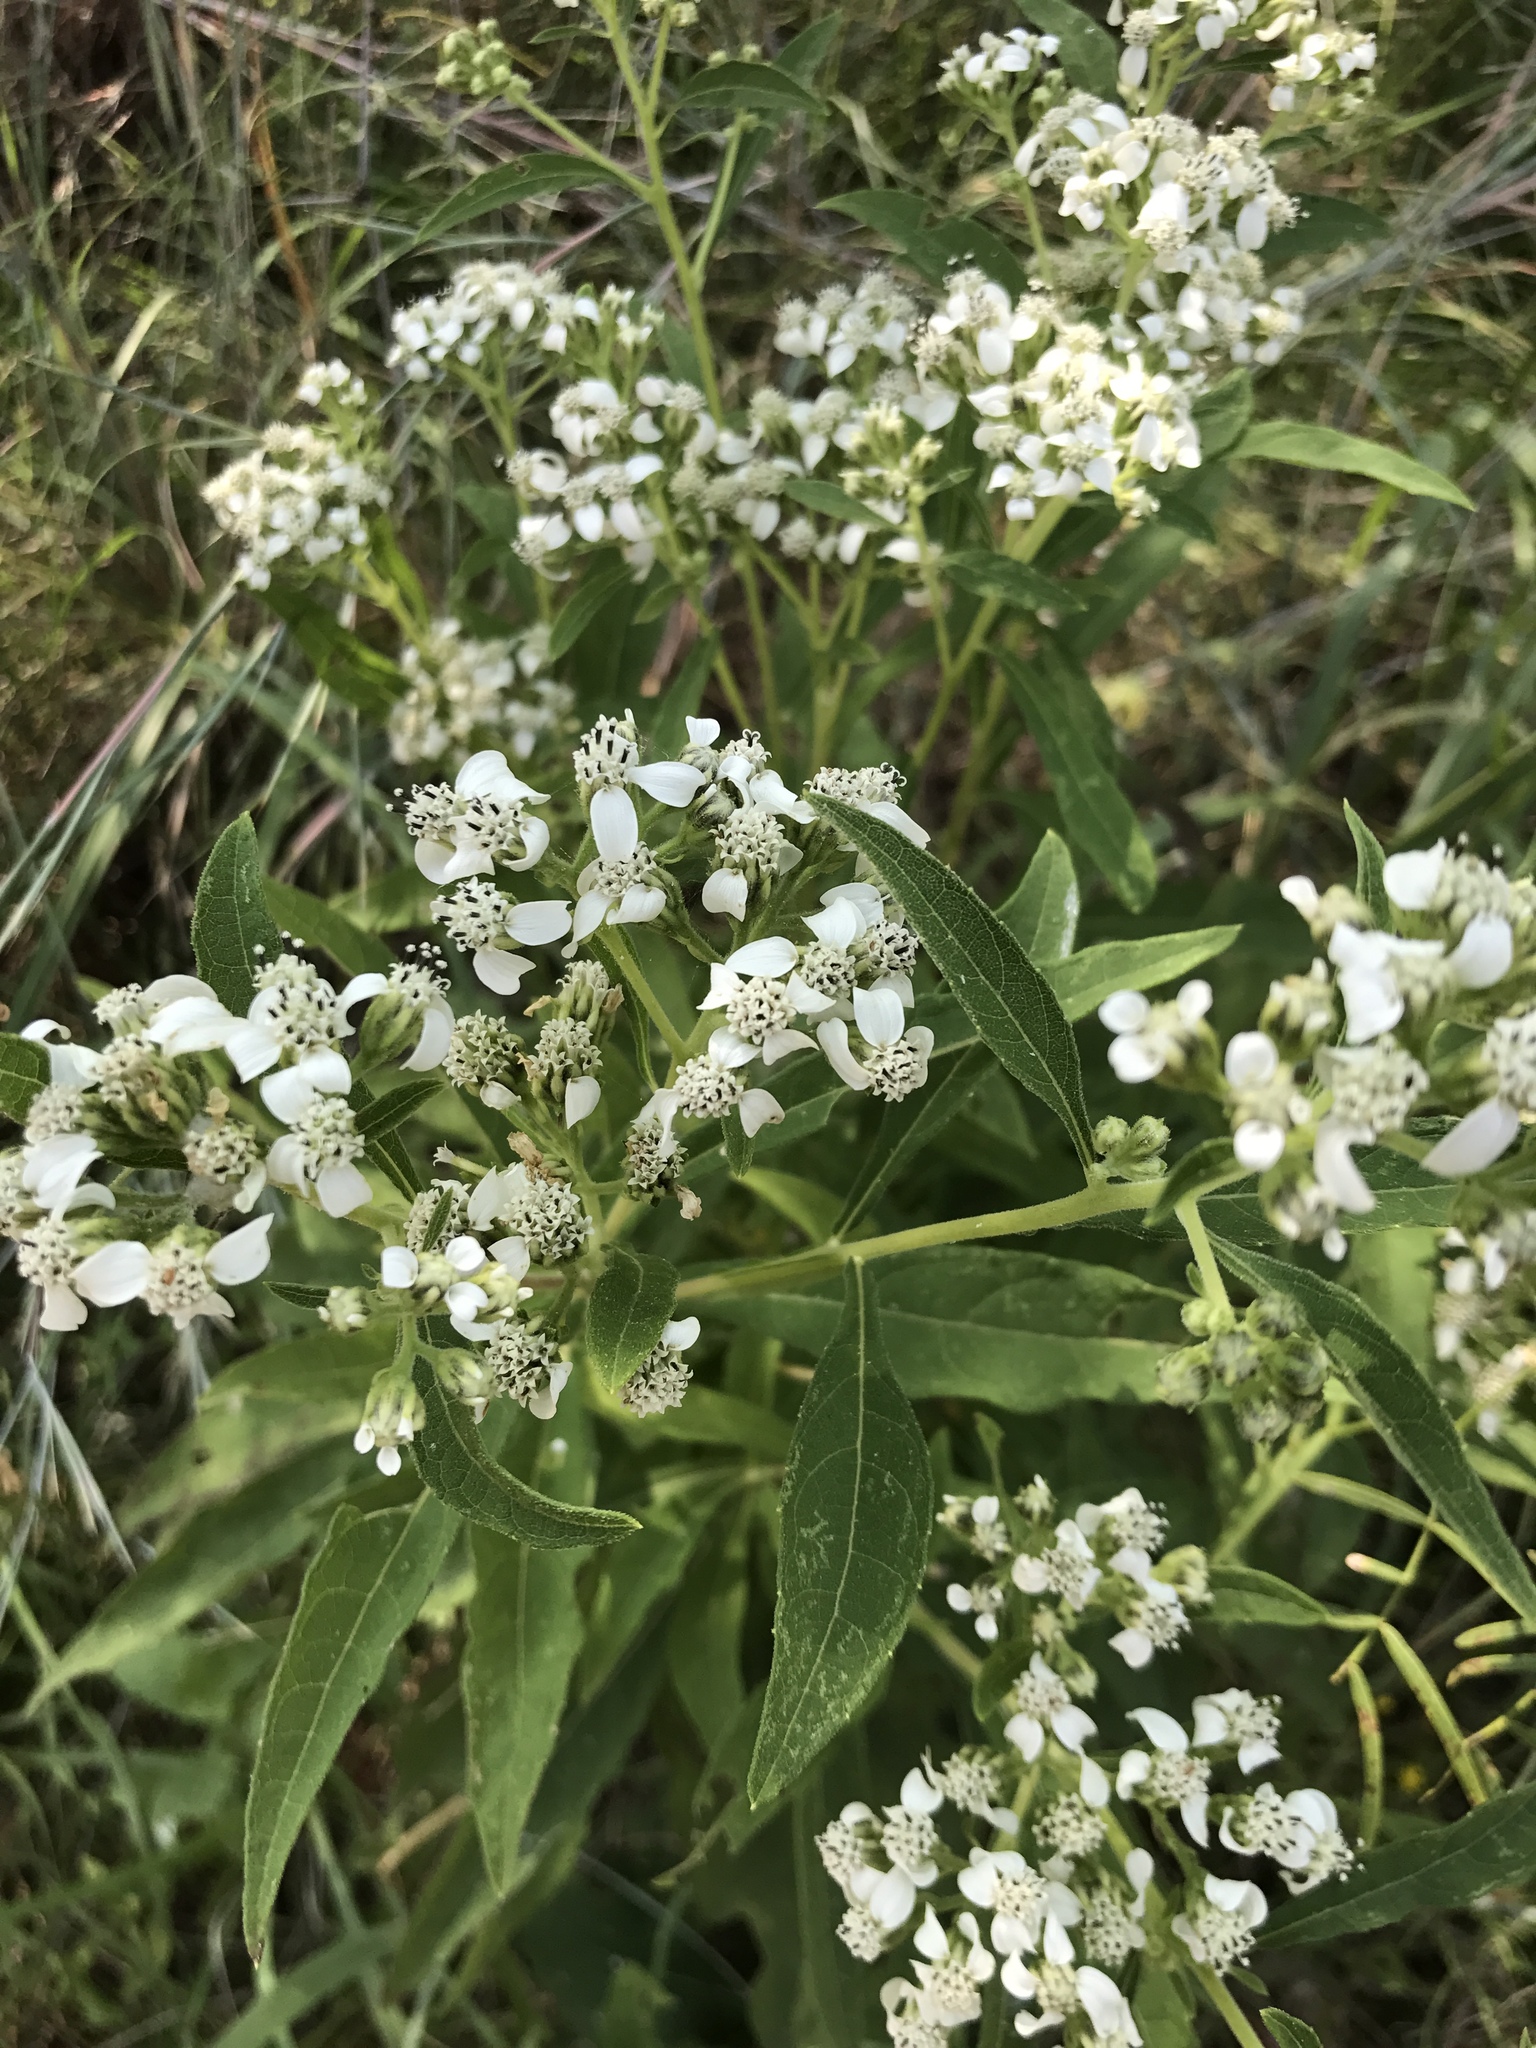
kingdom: Plantae
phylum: Tracheophyta
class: Magnoliopsida
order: Asterales
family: Asteraceae
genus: Verbesina
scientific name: Verbesina virginica
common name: Frostweed
